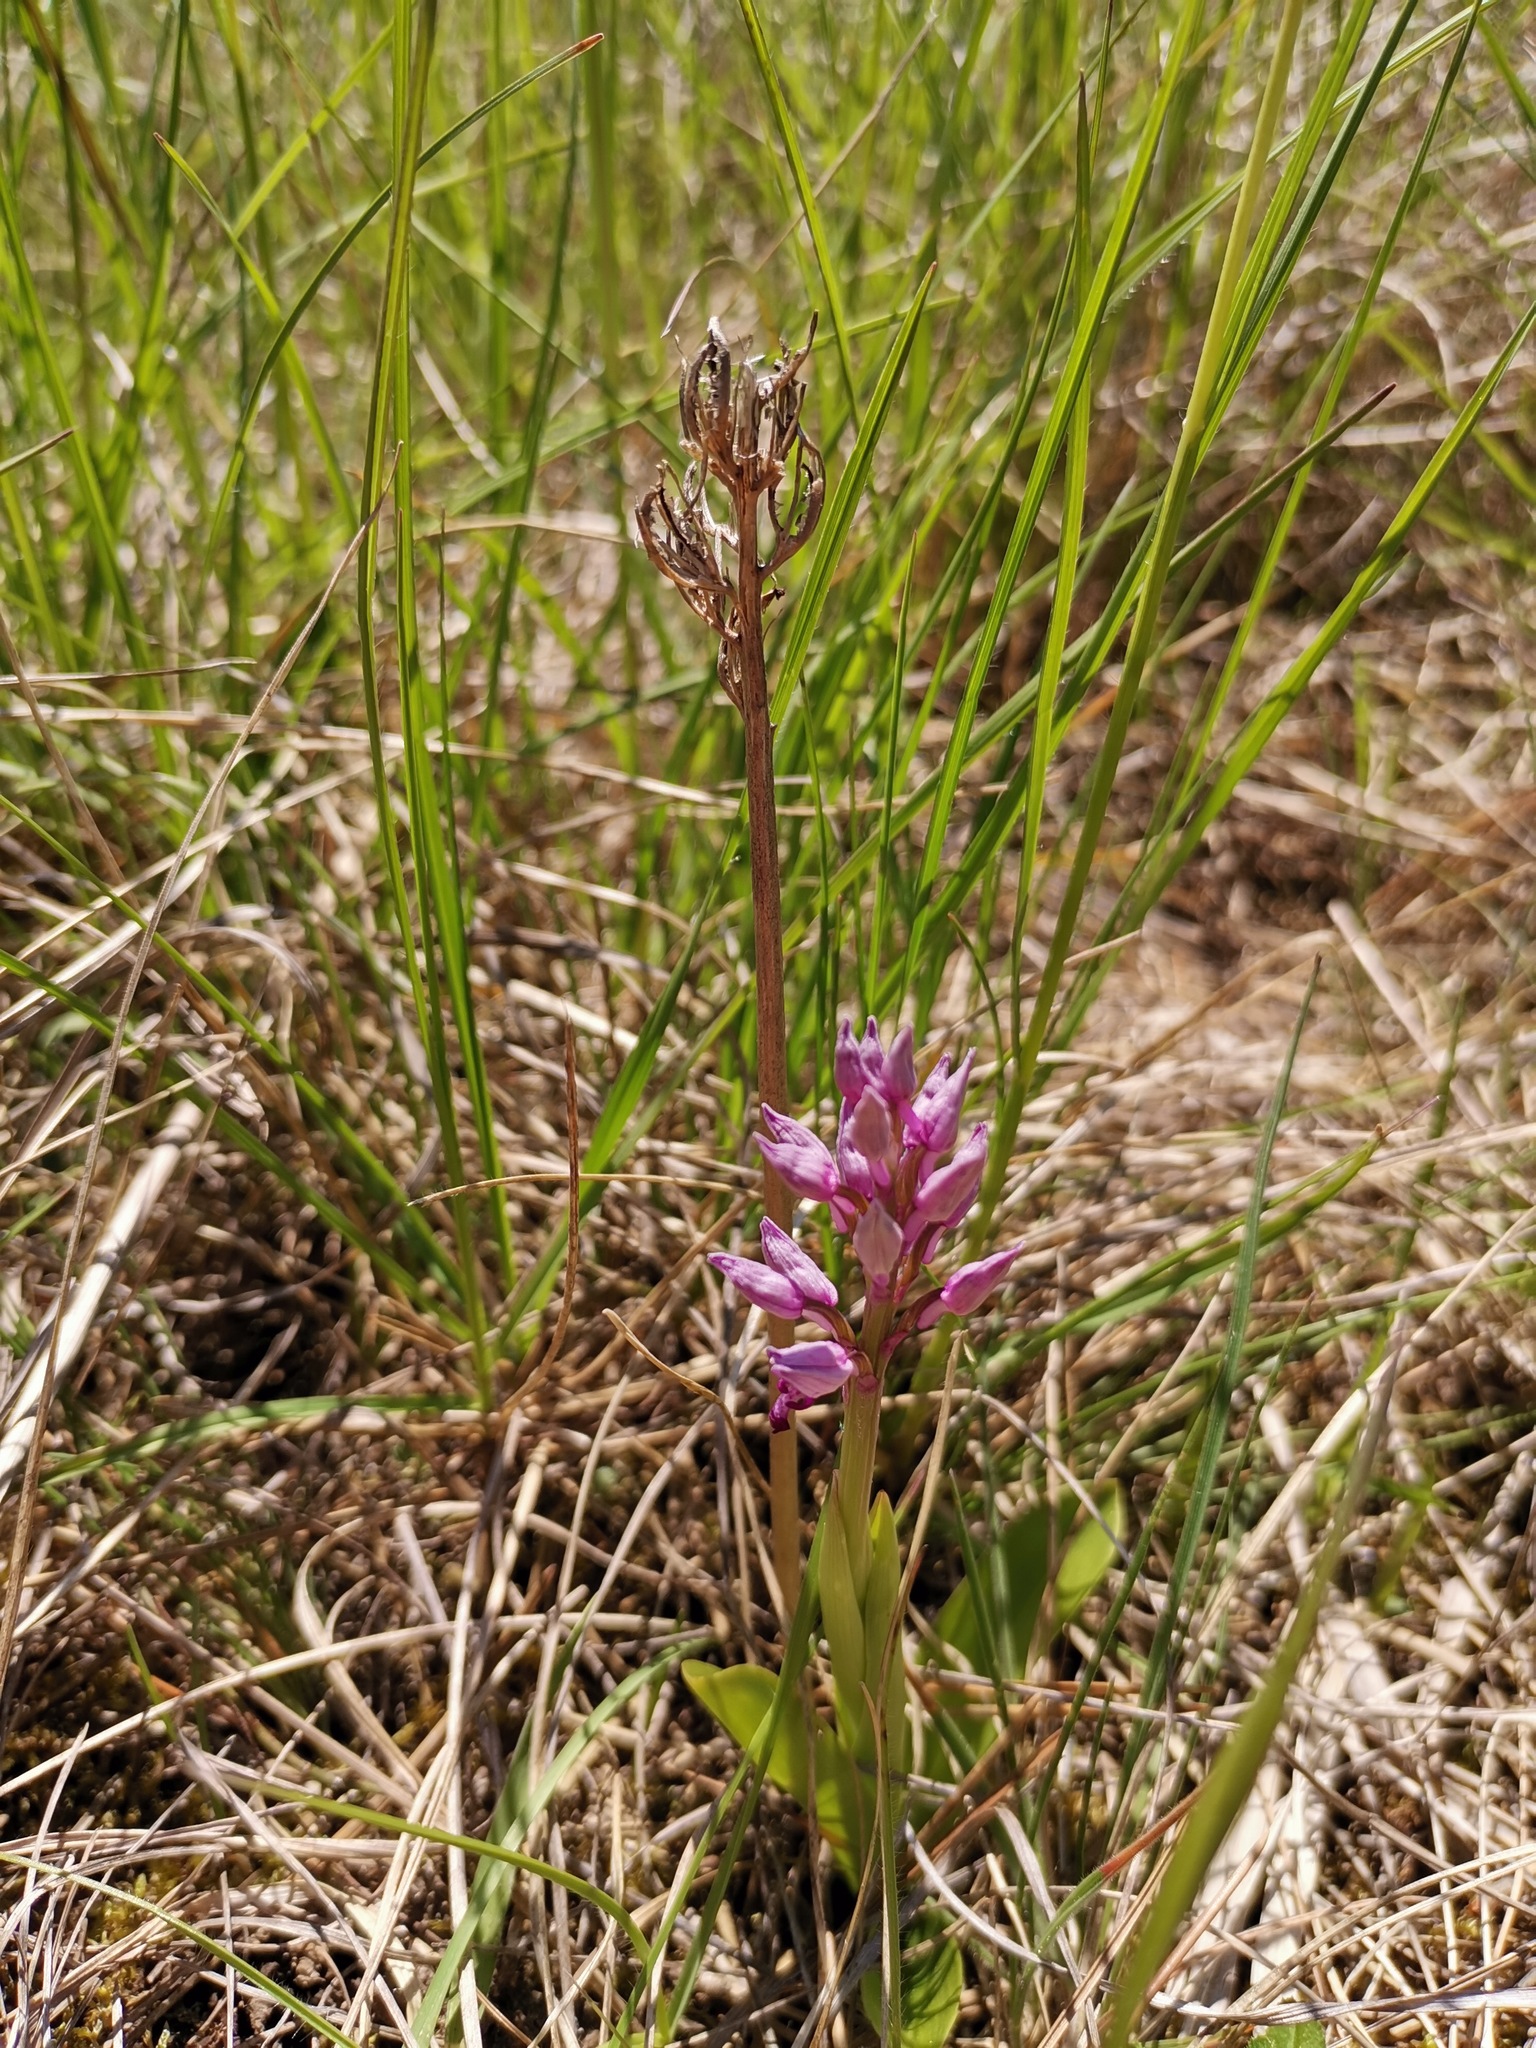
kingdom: Plantae
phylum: Tracheophyta
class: Liliopsida
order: Asparagales
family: Orchidaceae
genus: Orchis
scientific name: Orchis militaris
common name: Military orchid
